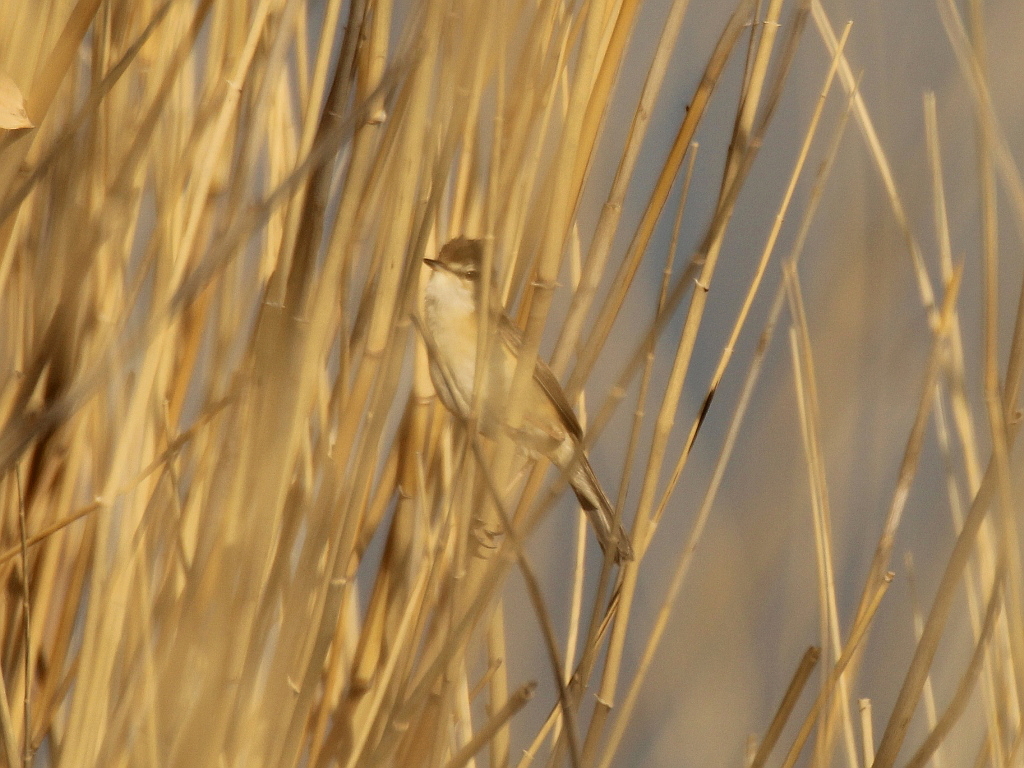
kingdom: Animalia
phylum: Chordata
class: Aves
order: Passeriformes
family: Acrocephalidae
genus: Acrocephalus
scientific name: Acrocephalus agricola
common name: Paddyfield warbler
